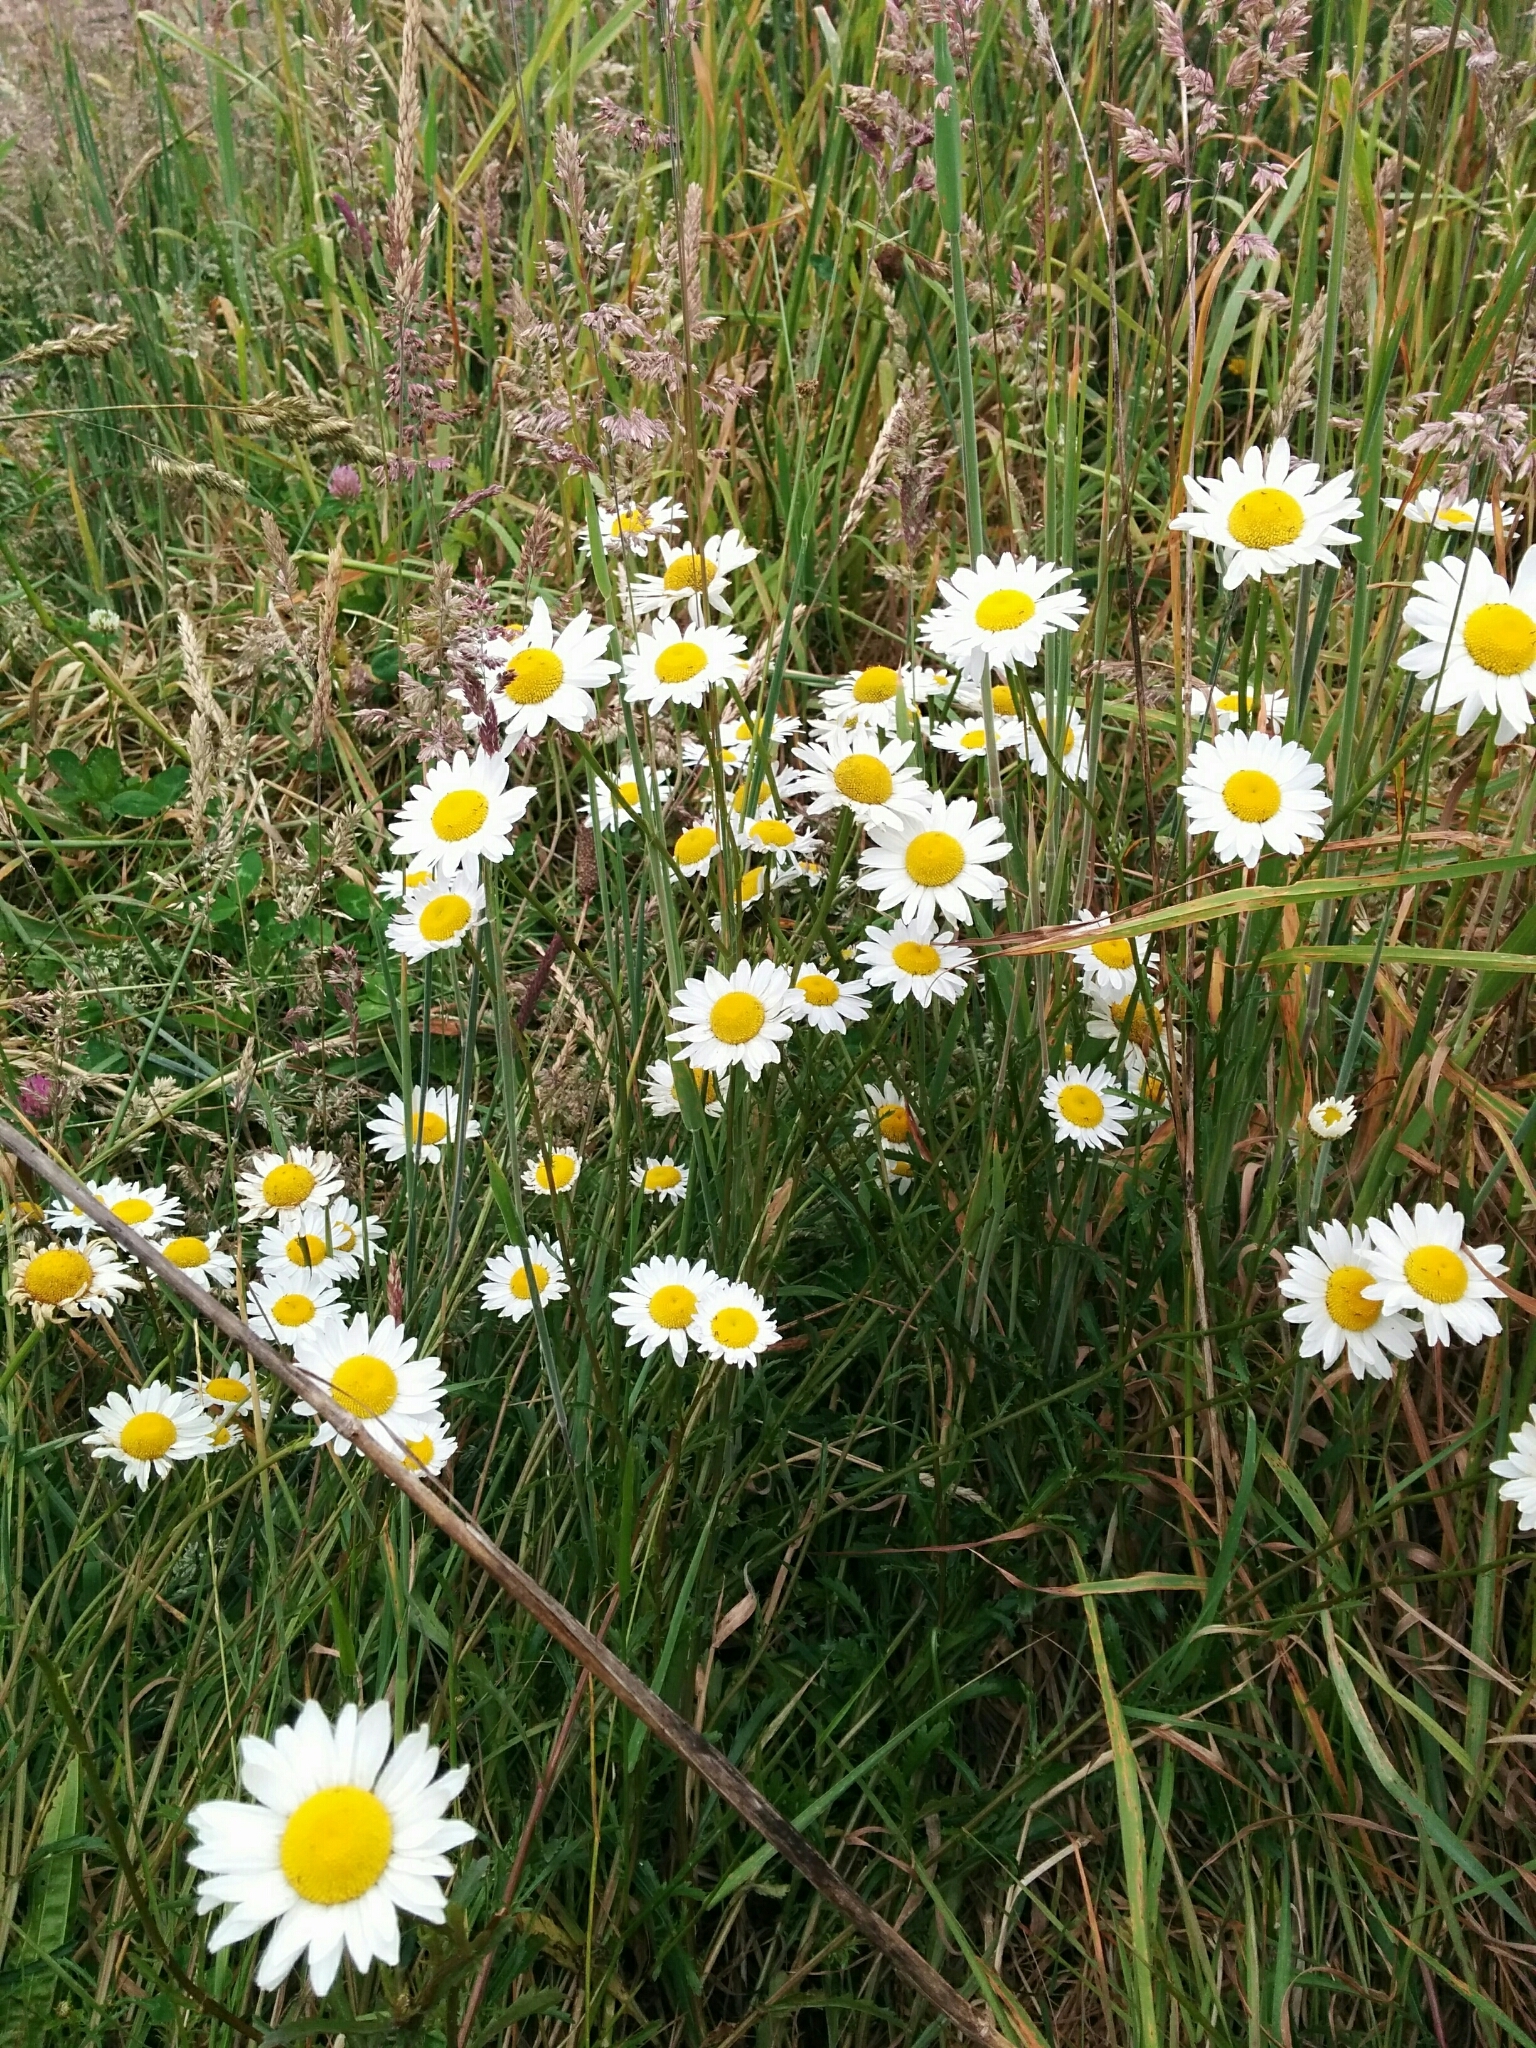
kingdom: Plantae
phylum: Tracheophyta
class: Magnoliopsida
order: Asterales
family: Asteraceae
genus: Leucanthemum
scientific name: Leucanthemum vulgare
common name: Oxeye daisy
